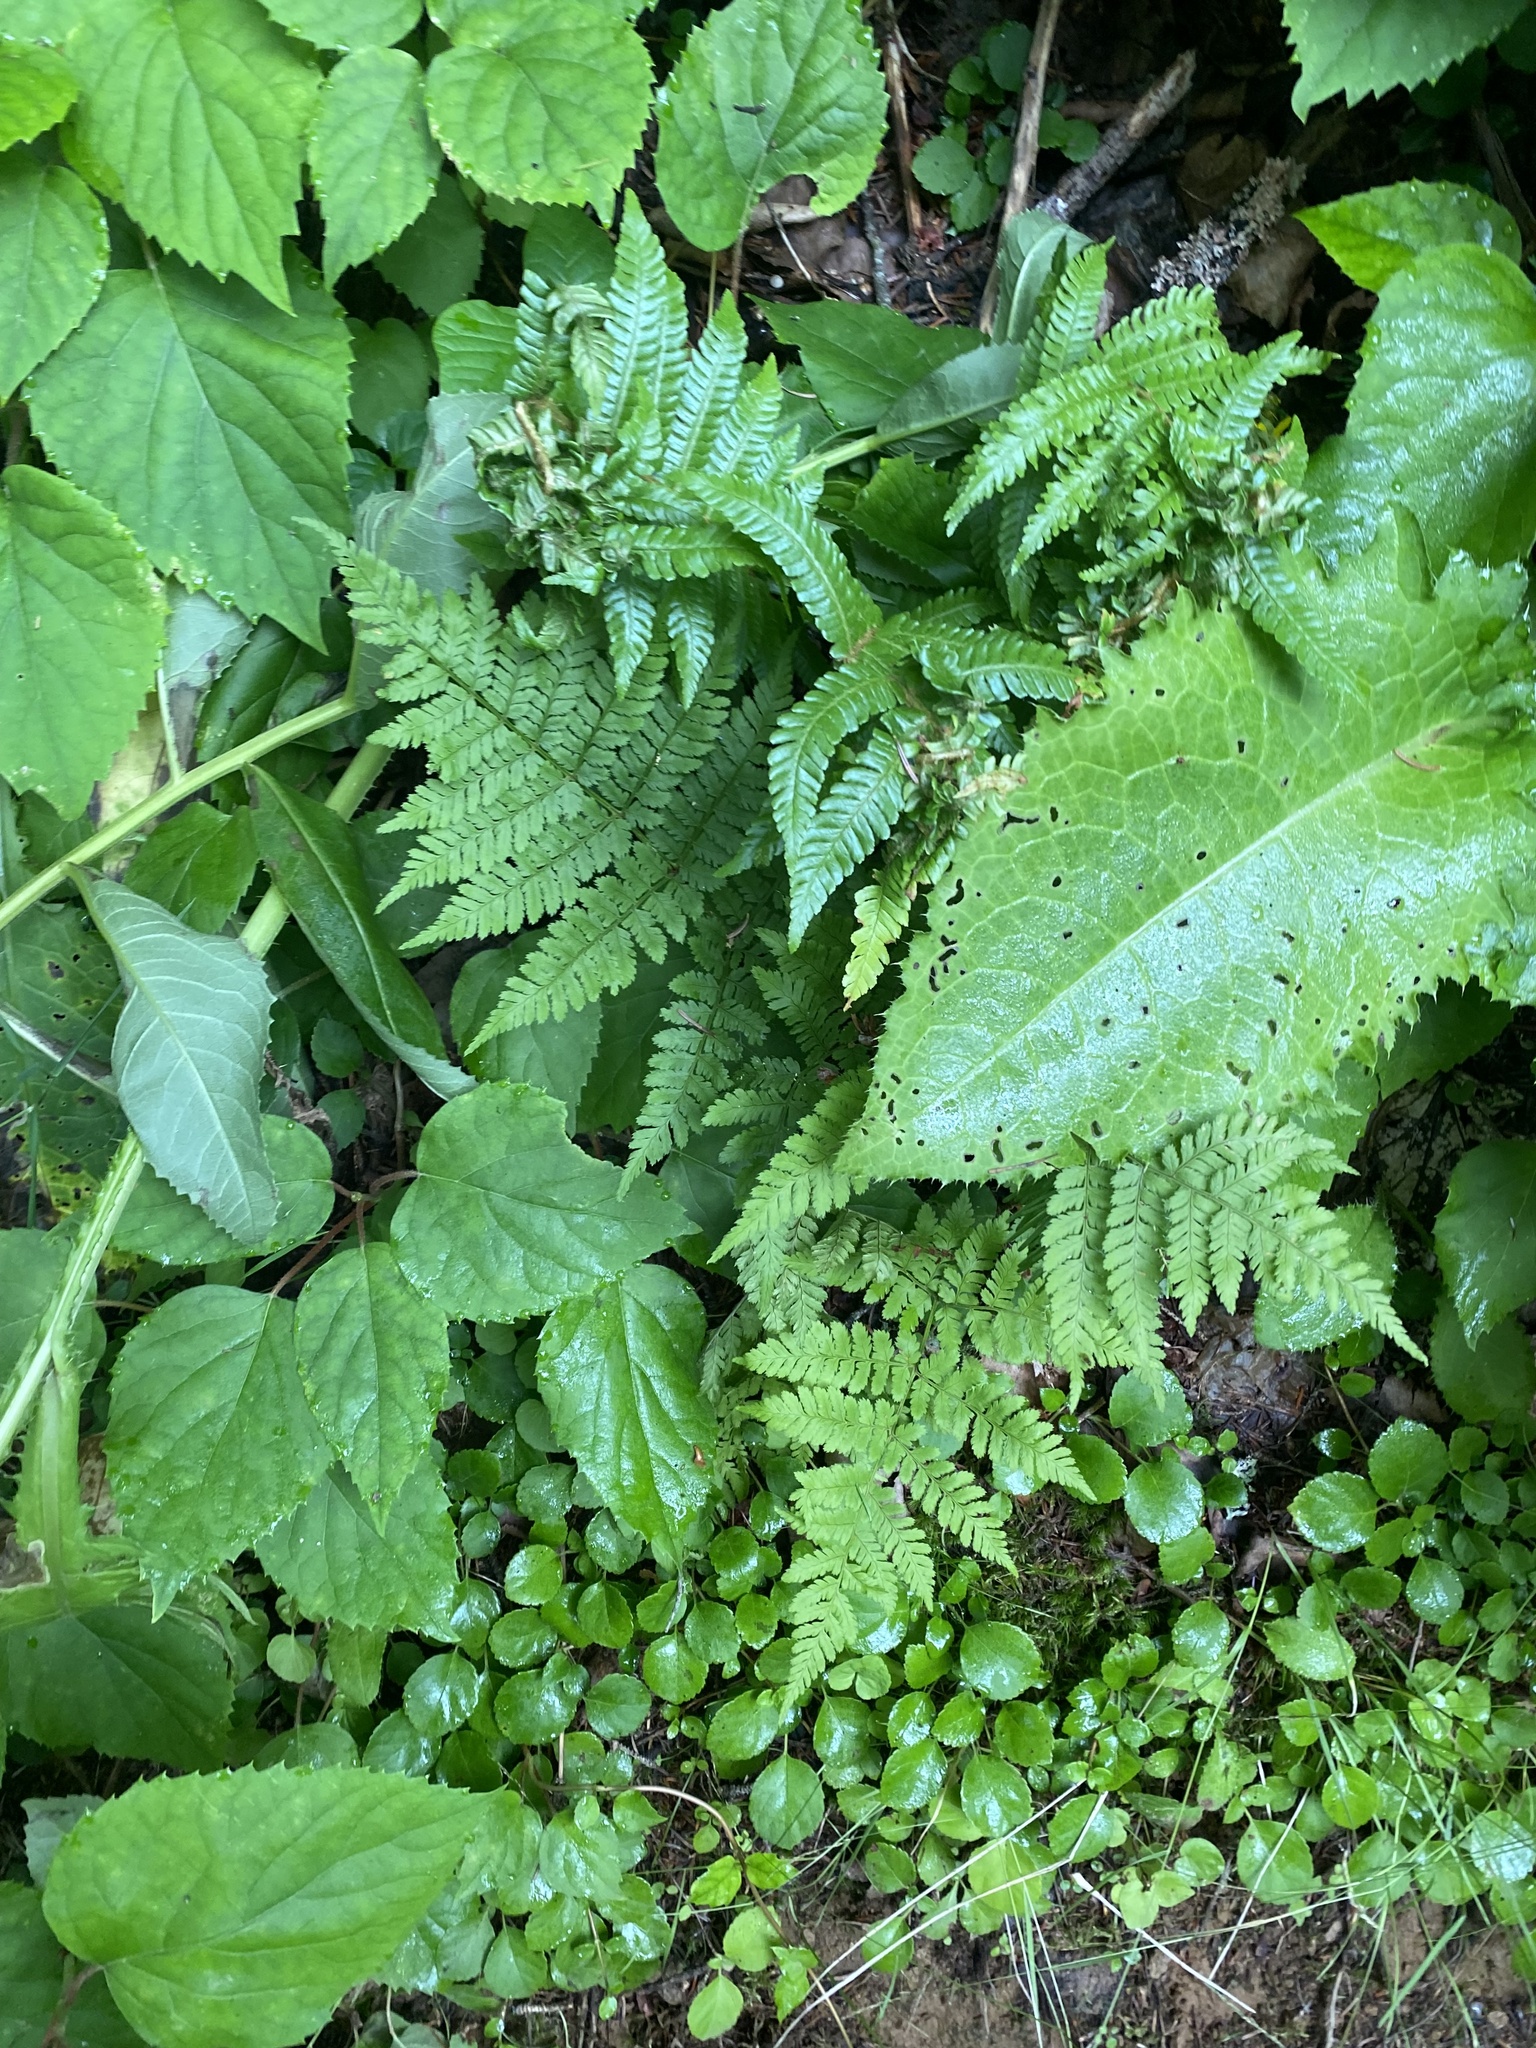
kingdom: Plantae
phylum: Tracheophyta
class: Polypodiopsida
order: Polypodiales
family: Dryopteridaceae
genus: Dryopteris
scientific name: Dryopteris expansa
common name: Northern buckler fern
